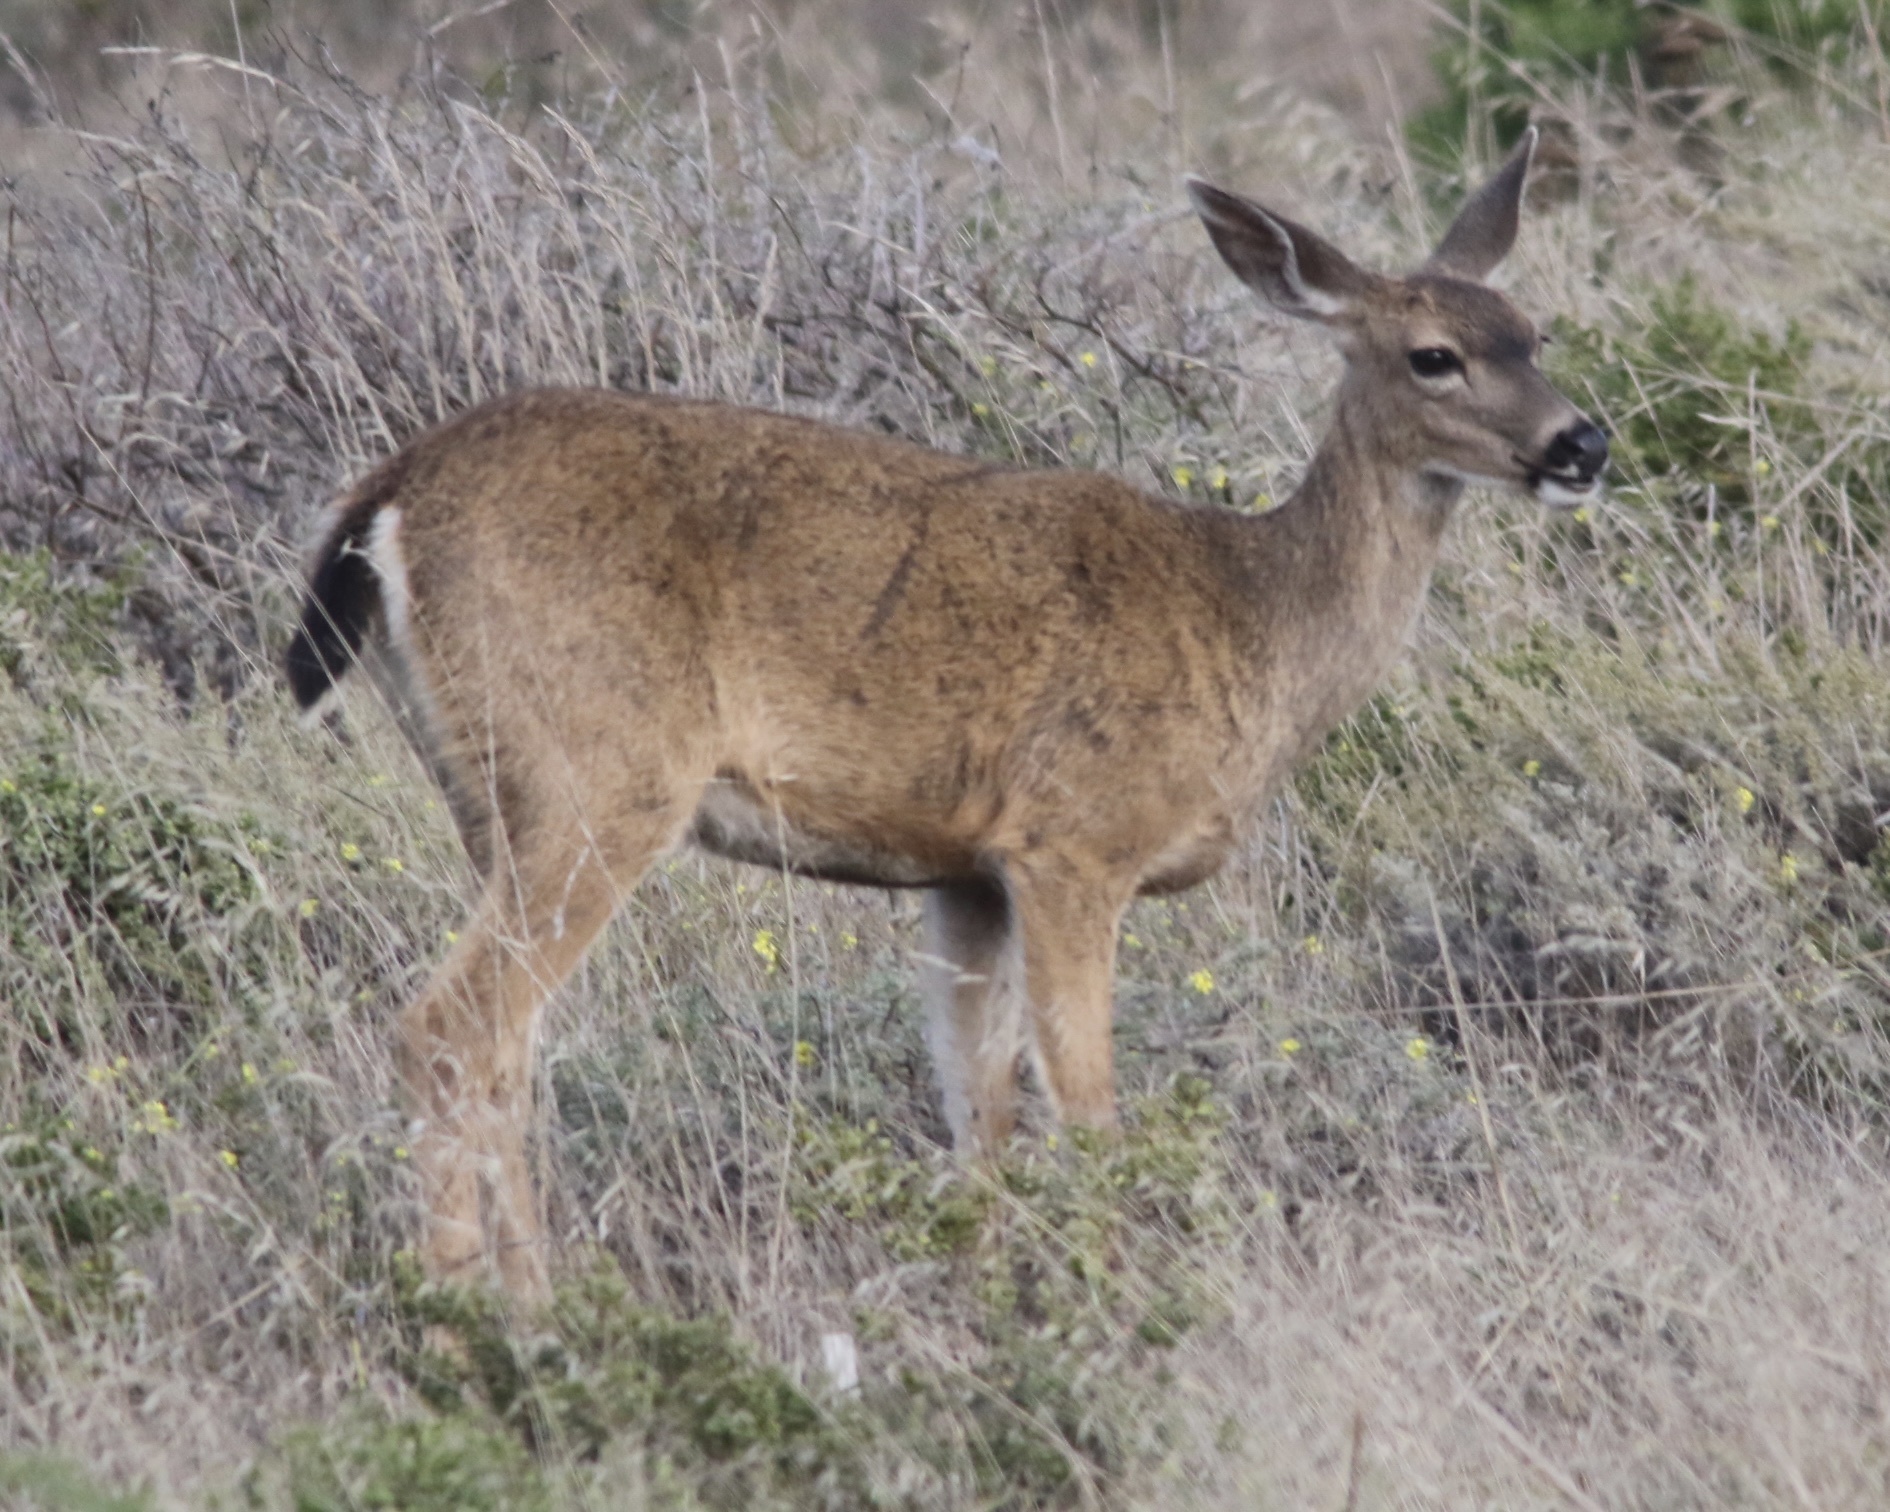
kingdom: Animalia
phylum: Chordata
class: Mammalia
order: Artiodactyla
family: Cervidae
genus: Odocoileus
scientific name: Odocoileus hemionus
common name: Mule deer
